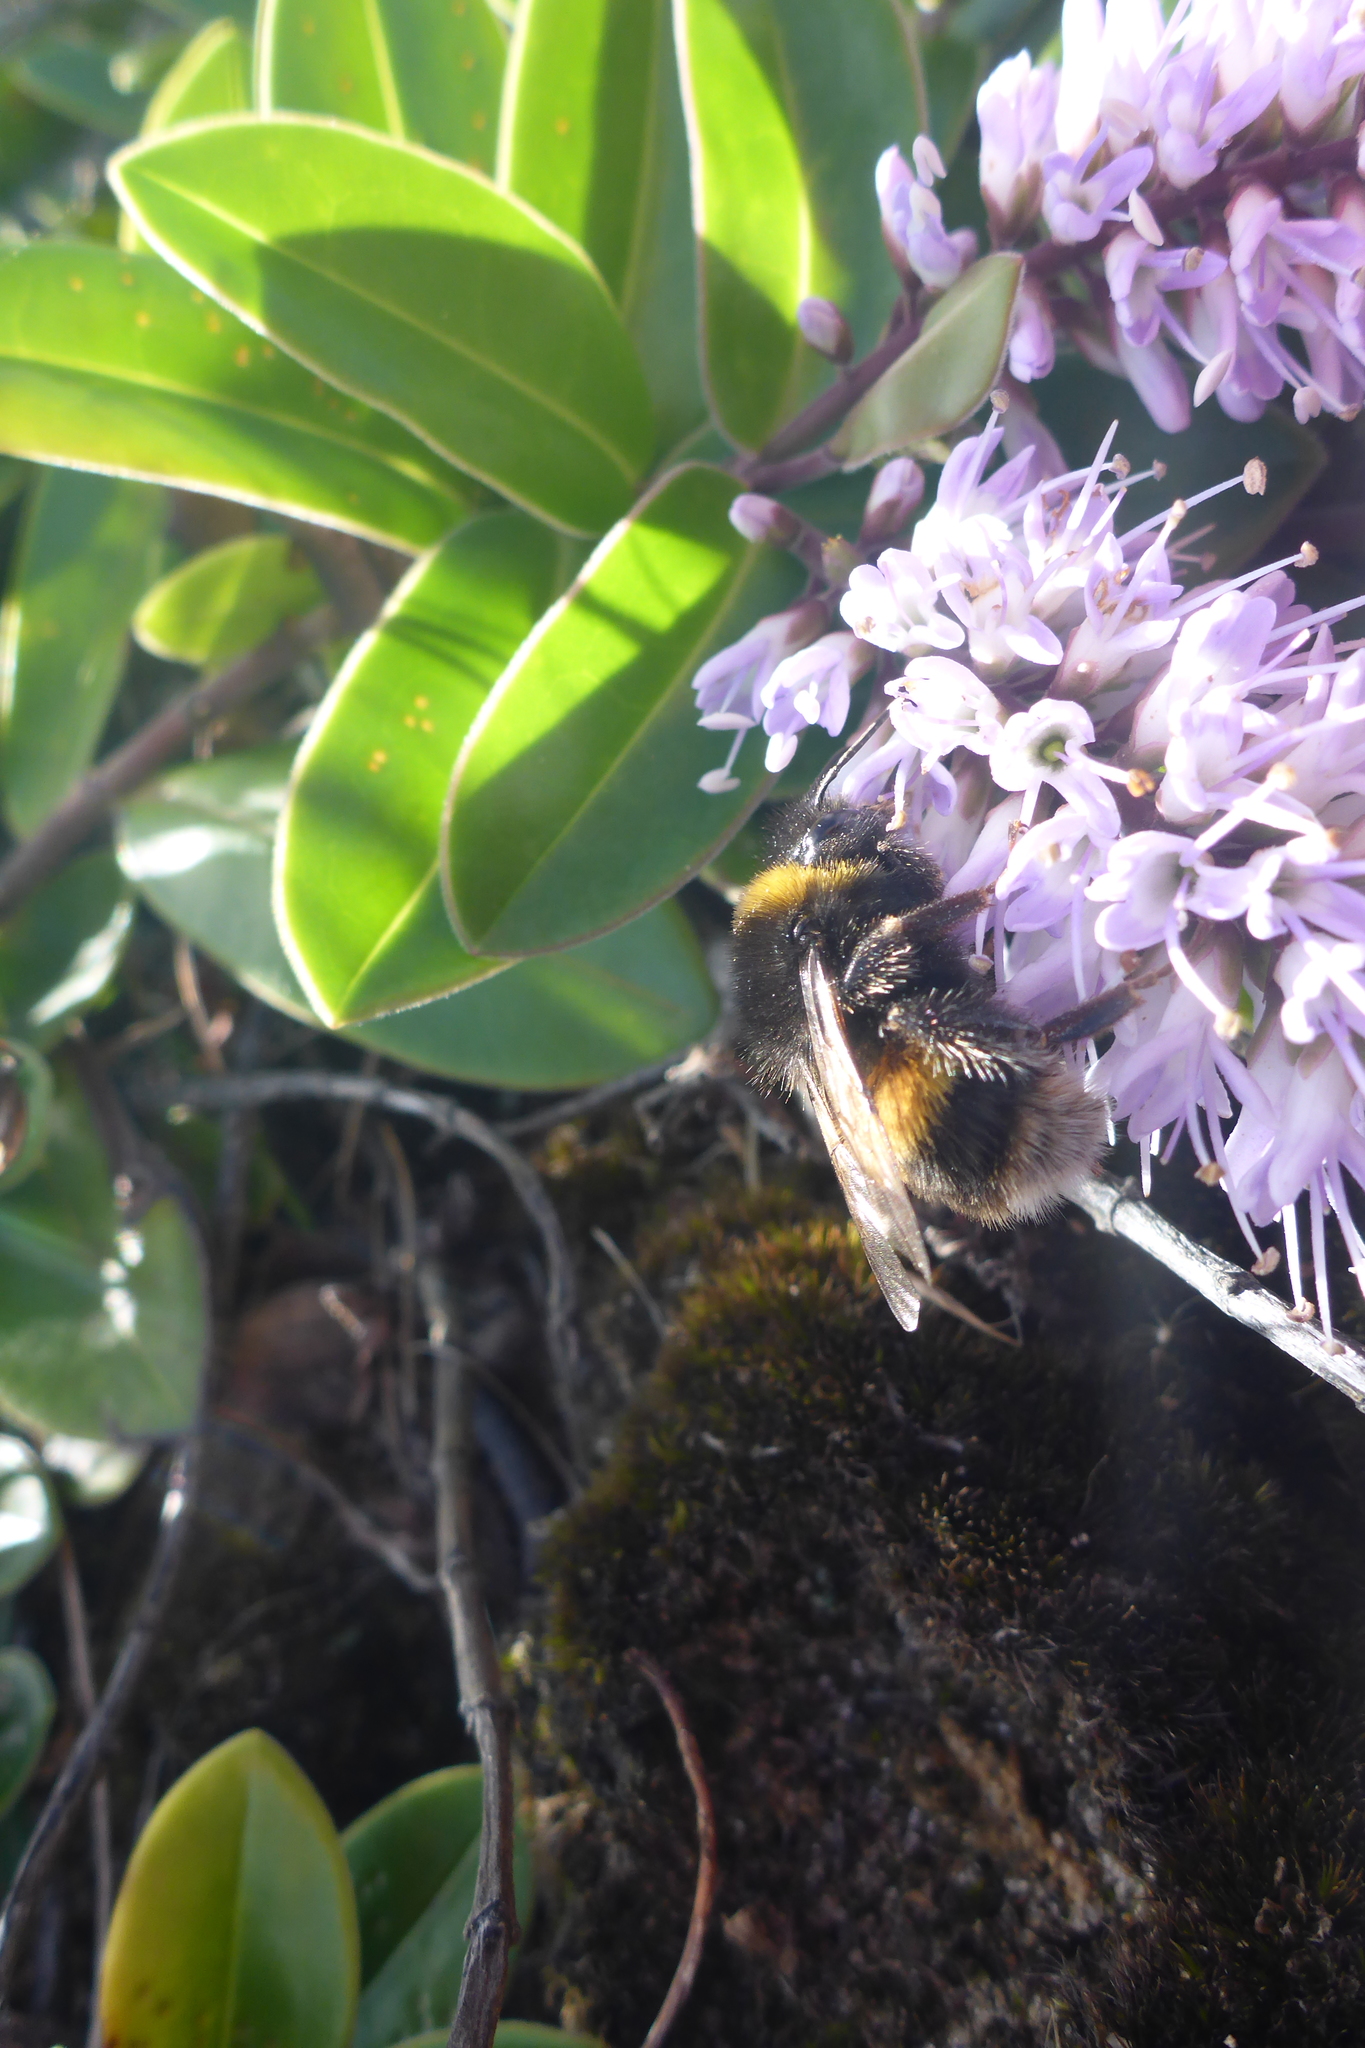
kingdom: Animalia
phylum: Arthropoda
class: Insecta
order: Hymenoptera
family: Apidae
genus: Bombus
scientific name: Bombus terrestris
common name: Buff-tailed bumblebee
